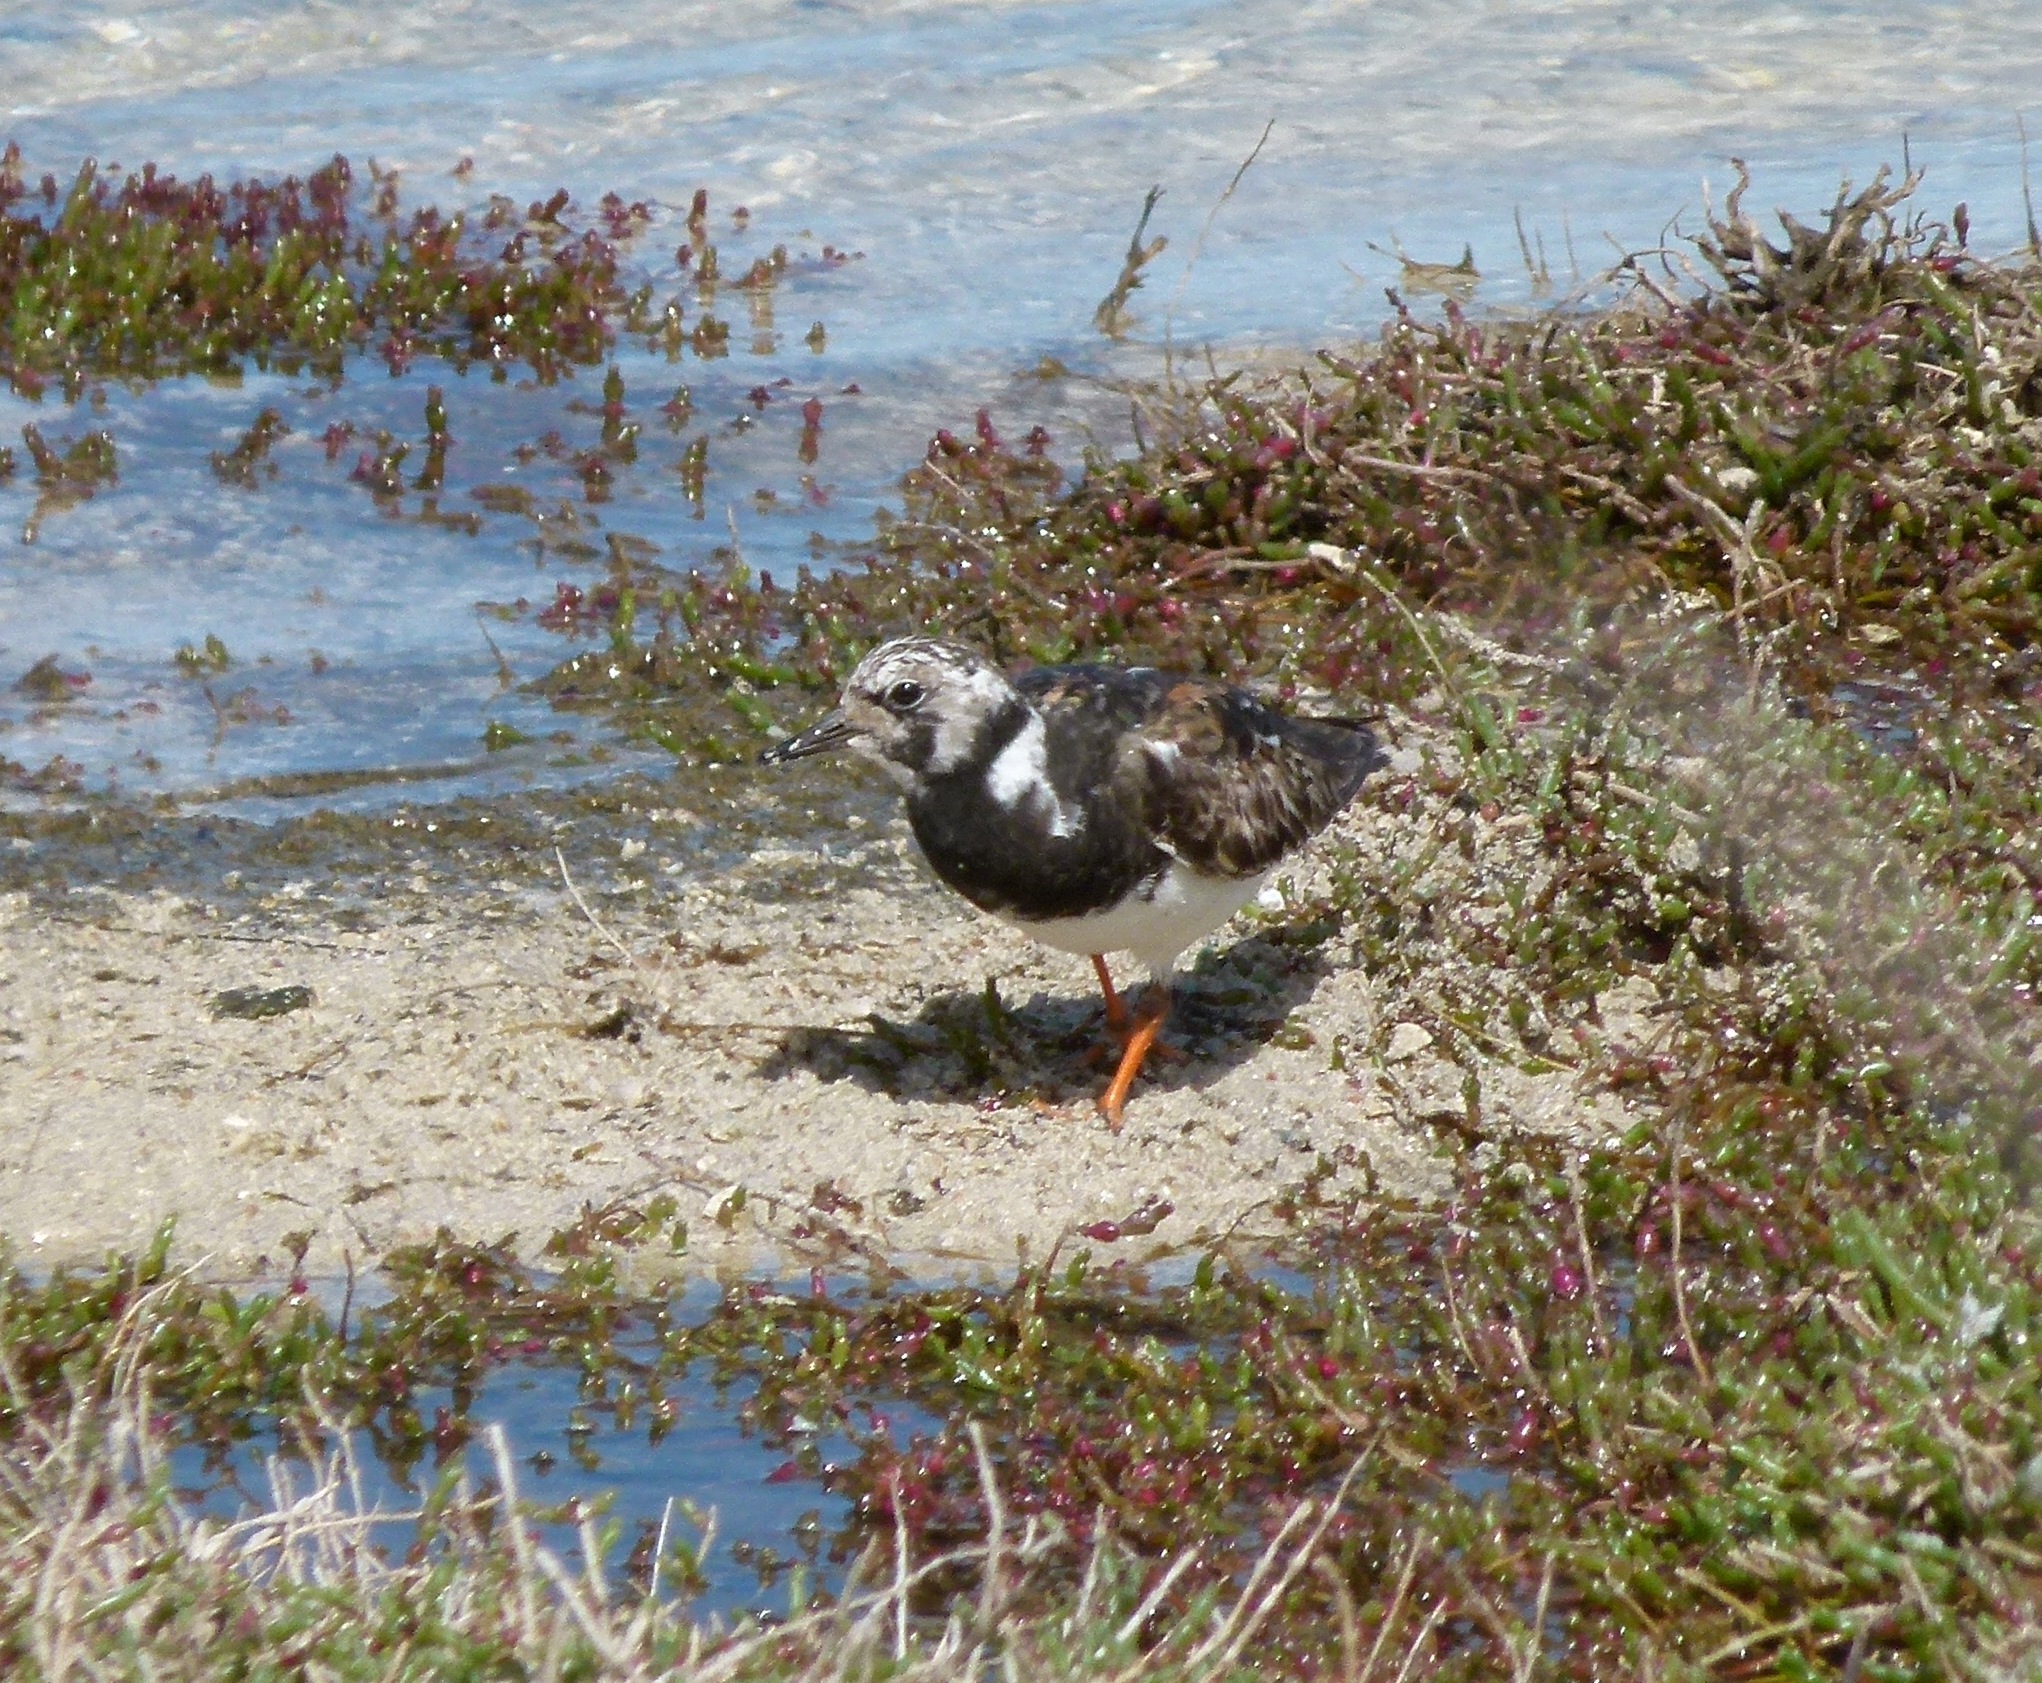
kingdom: Animalia
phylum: Chordata
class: Aves
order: Charadriiformes
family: Scolopacidae
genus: Arenaria
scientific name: Arenaria interpres
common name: Ruddy turnstone
